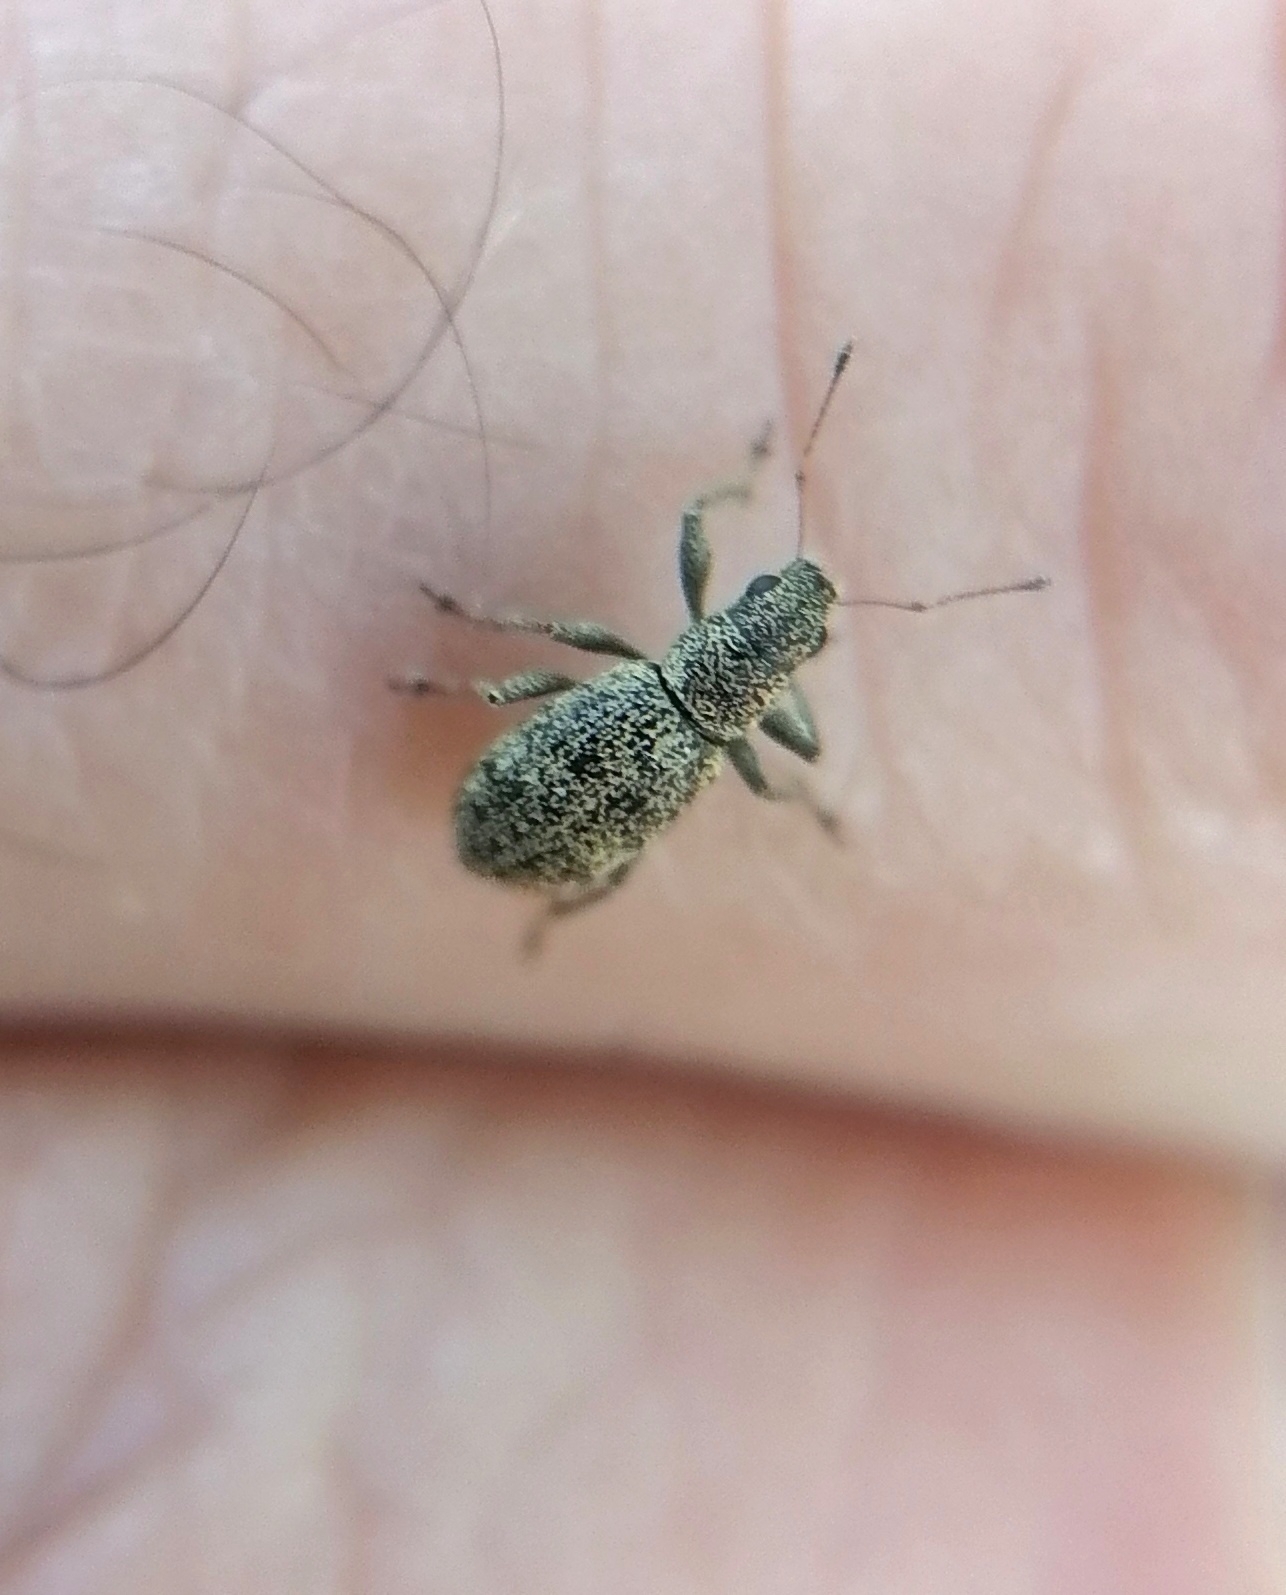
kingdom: Animalia
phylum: Arthropoda
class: Insecta
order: Coleoptera
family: Curculionidae
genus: Polydrusus
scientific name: Polydrusus inustus
